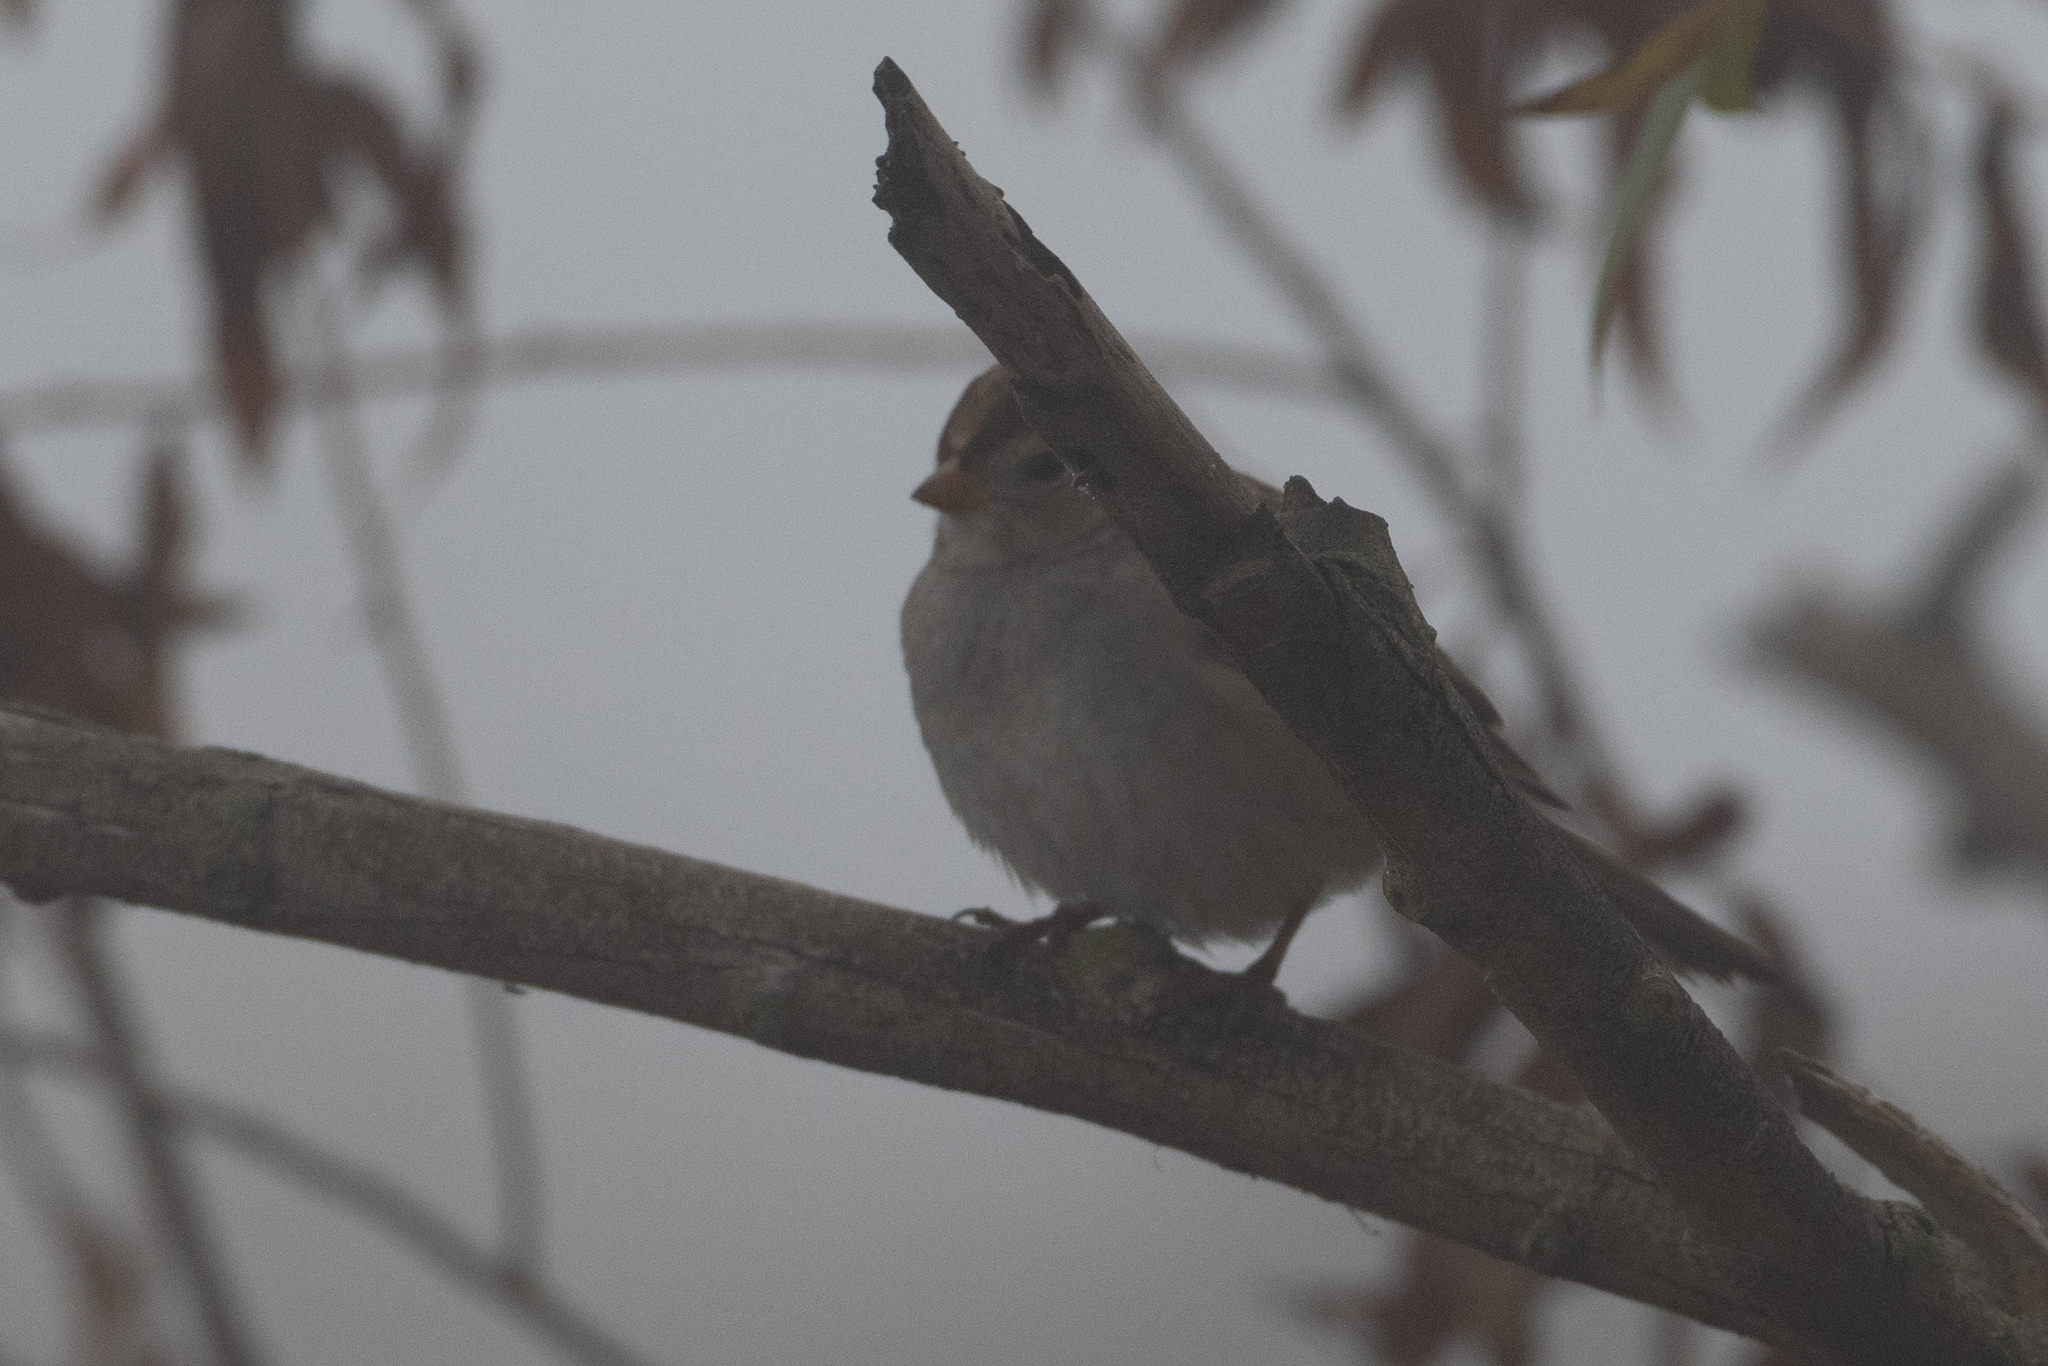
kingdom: Animalia
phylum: Chordata
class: Aves
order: Passeriformes
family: Passerellidae
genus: Zonotrichia
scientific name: Zonotrichia leucophrys
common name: White-crowned sparrow
